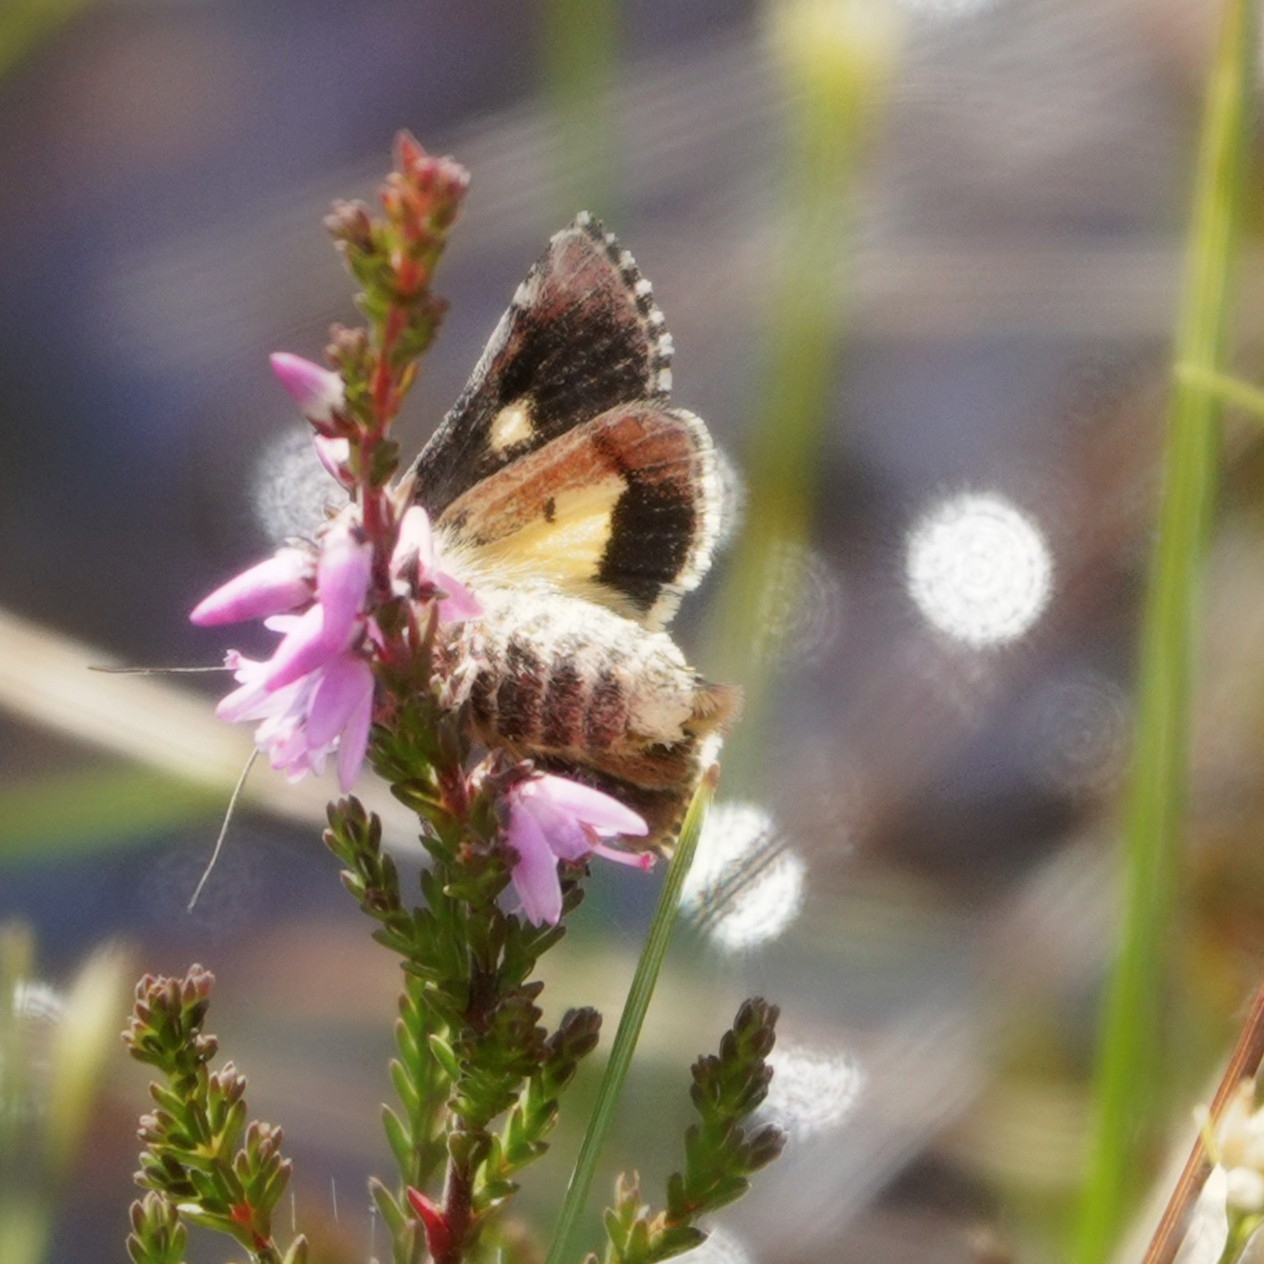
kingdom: Animalia
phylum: Arthropoda
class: Insecta
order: Lepidoptera
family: Noctuidae
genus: Anarta
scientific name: Anarta myrtilli
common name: Beautiful yellow underwing
